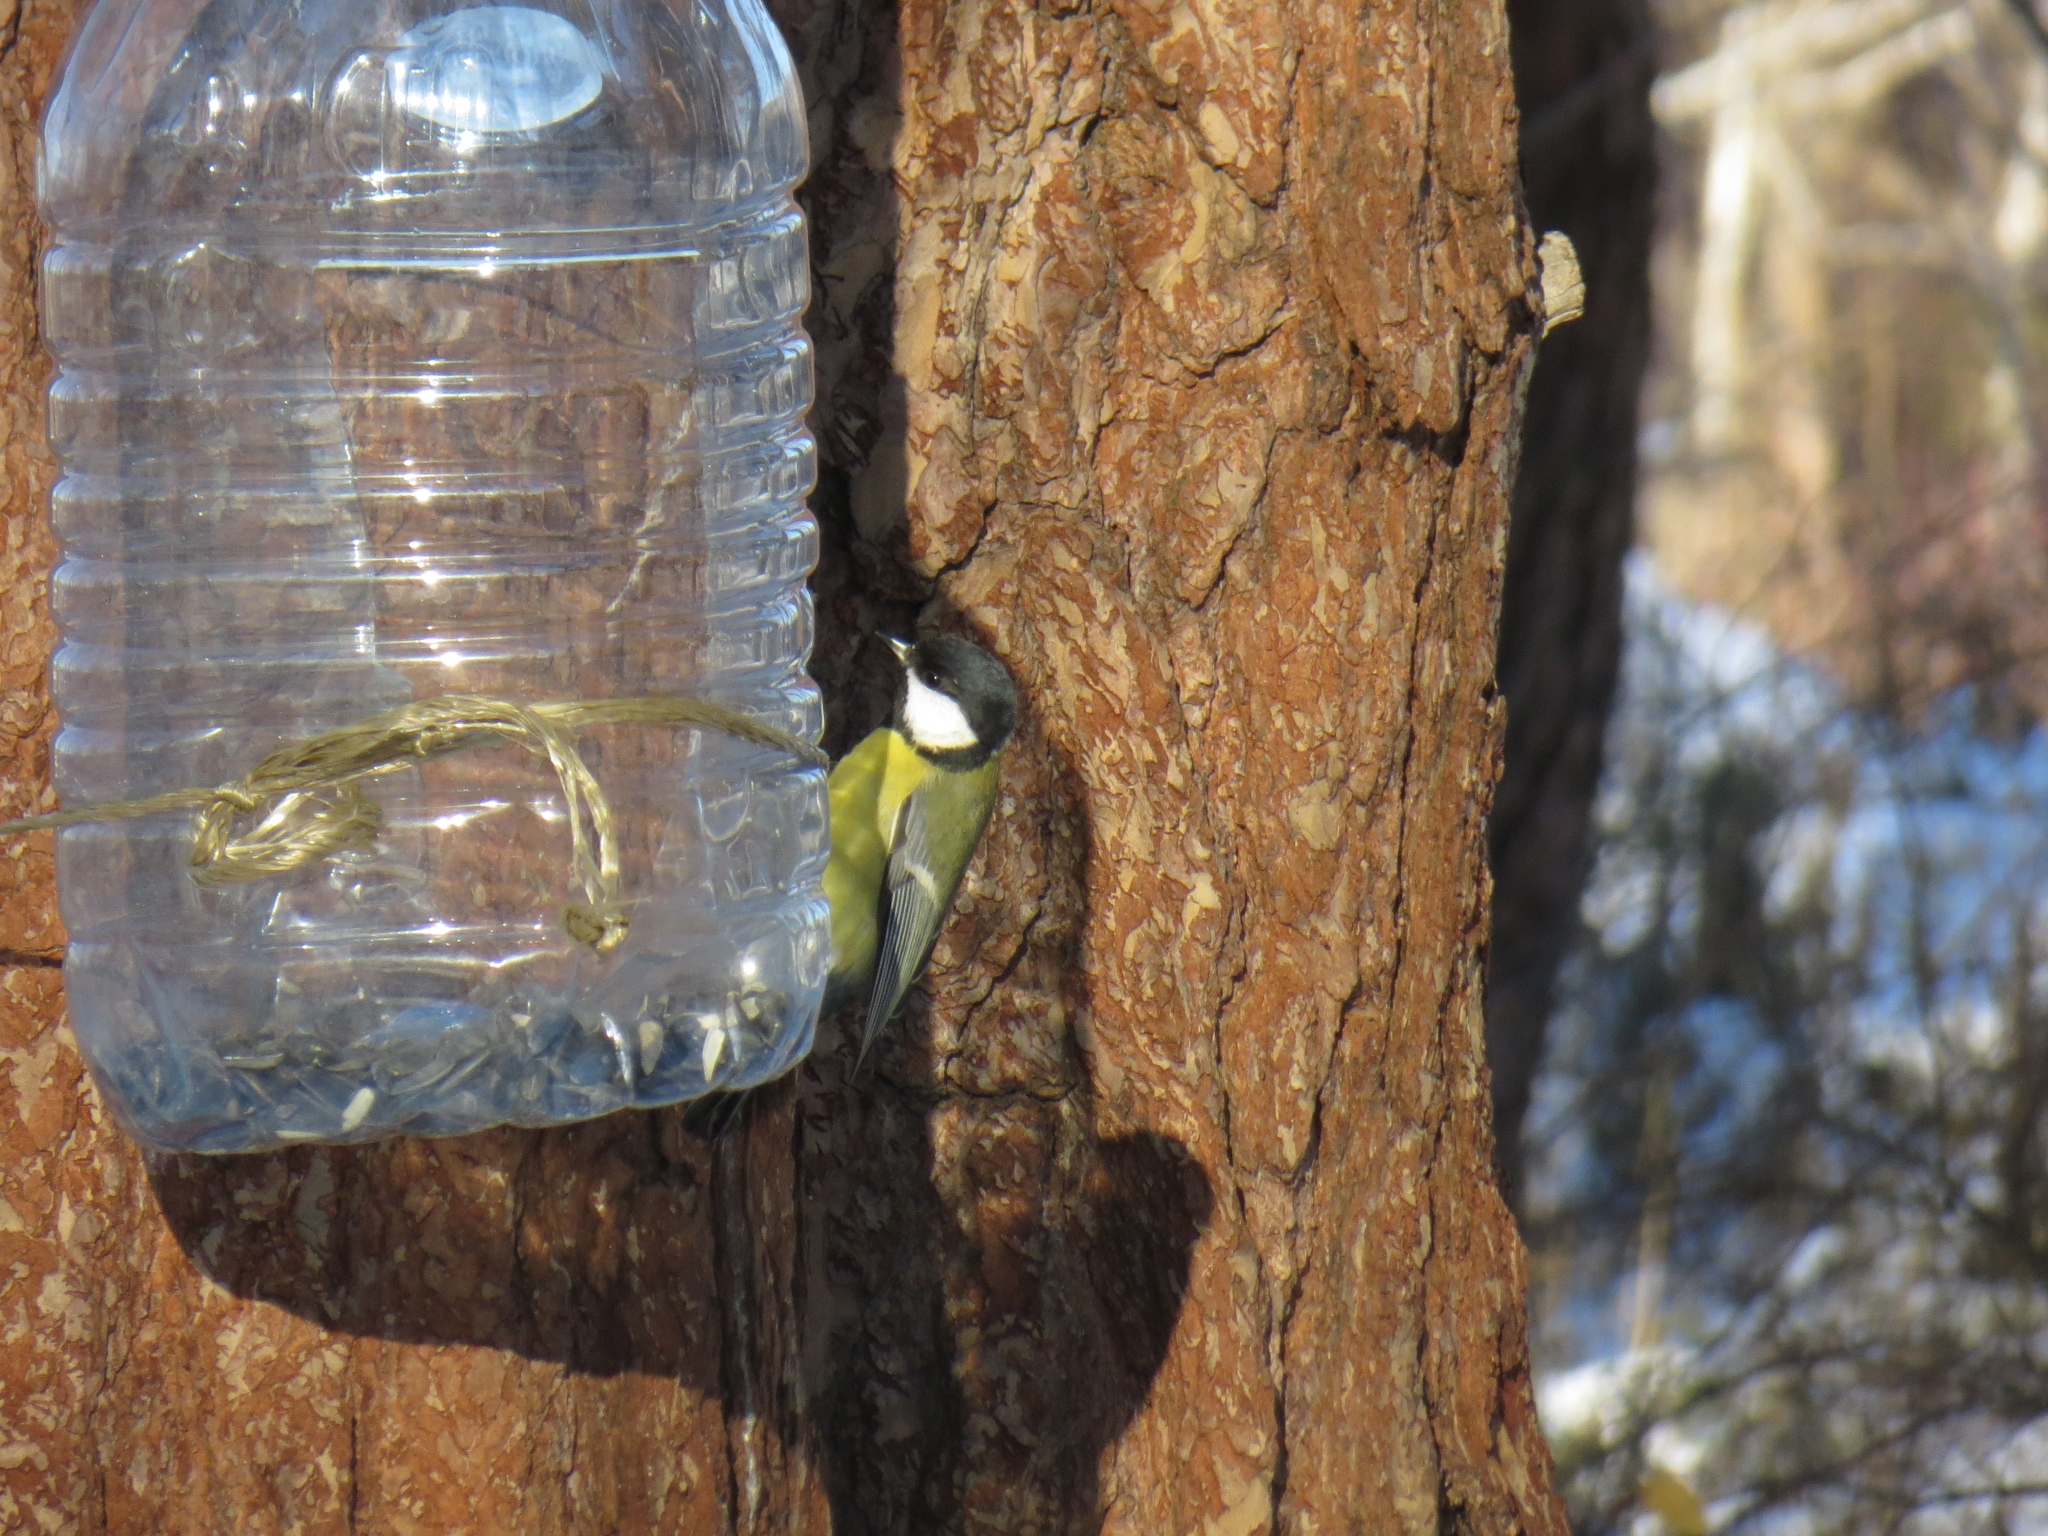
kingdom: Animalia
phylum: Chordata
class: Aves
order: Passeriformes
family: Paridae
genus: Parus
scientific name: Parus major
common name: Great tit
